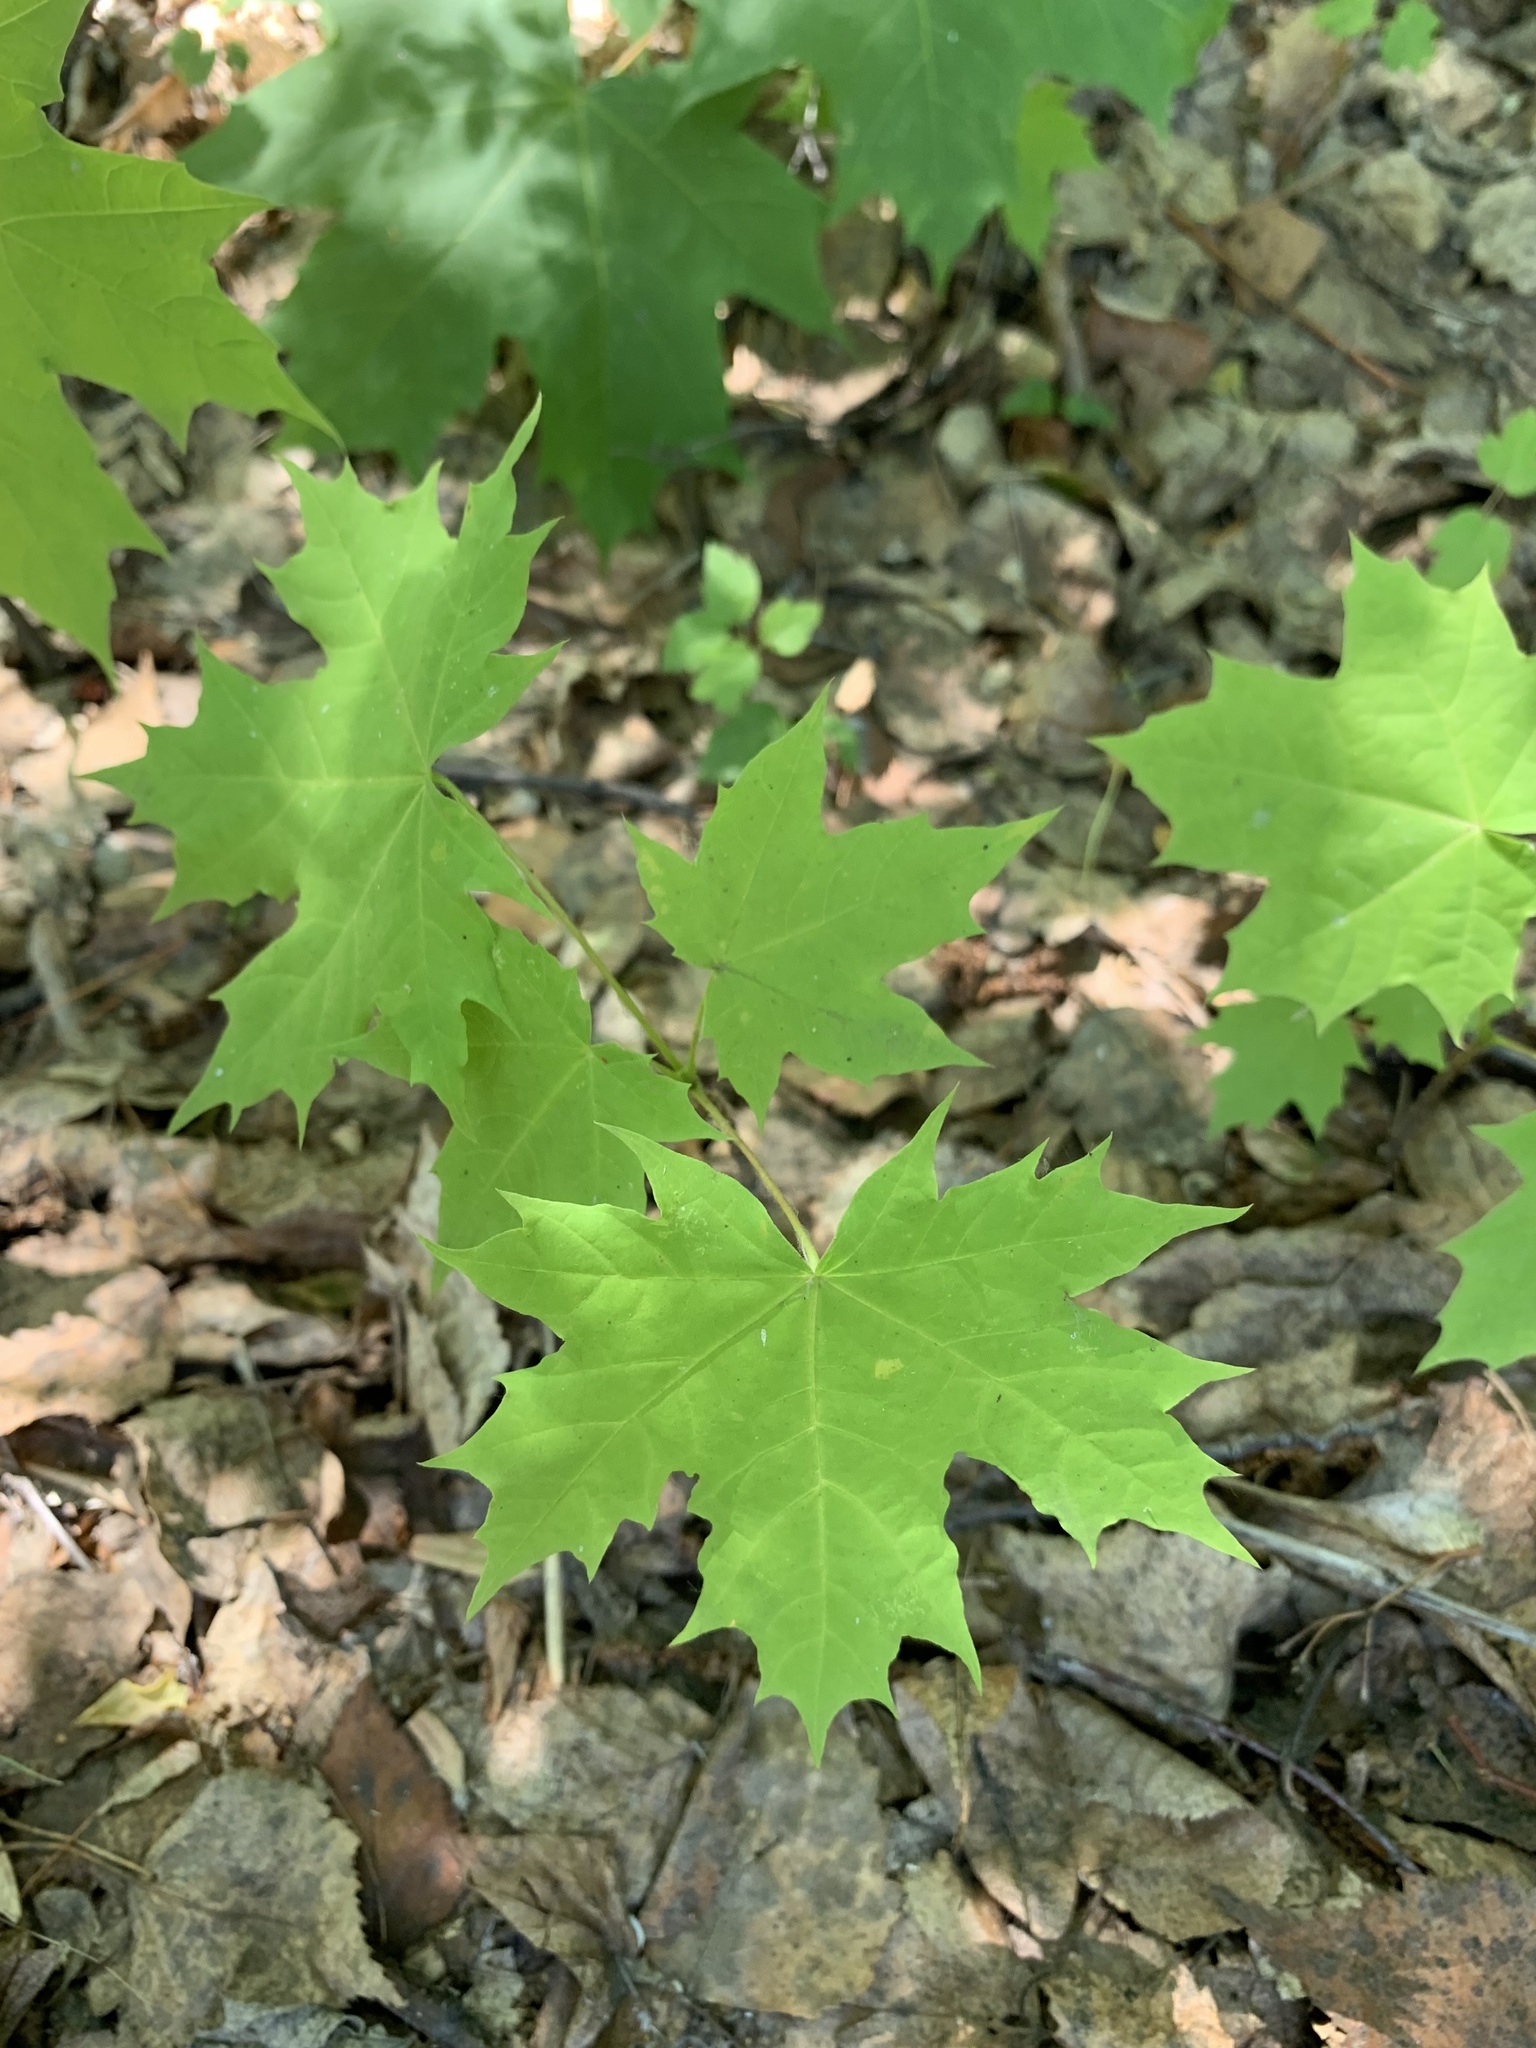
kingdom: Plantae
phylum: Tracheophyta
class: Magnoliopsida
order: Sapindales
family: Sapindaceae
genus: Acer
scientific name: Acer platanoides
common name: Norway maple
